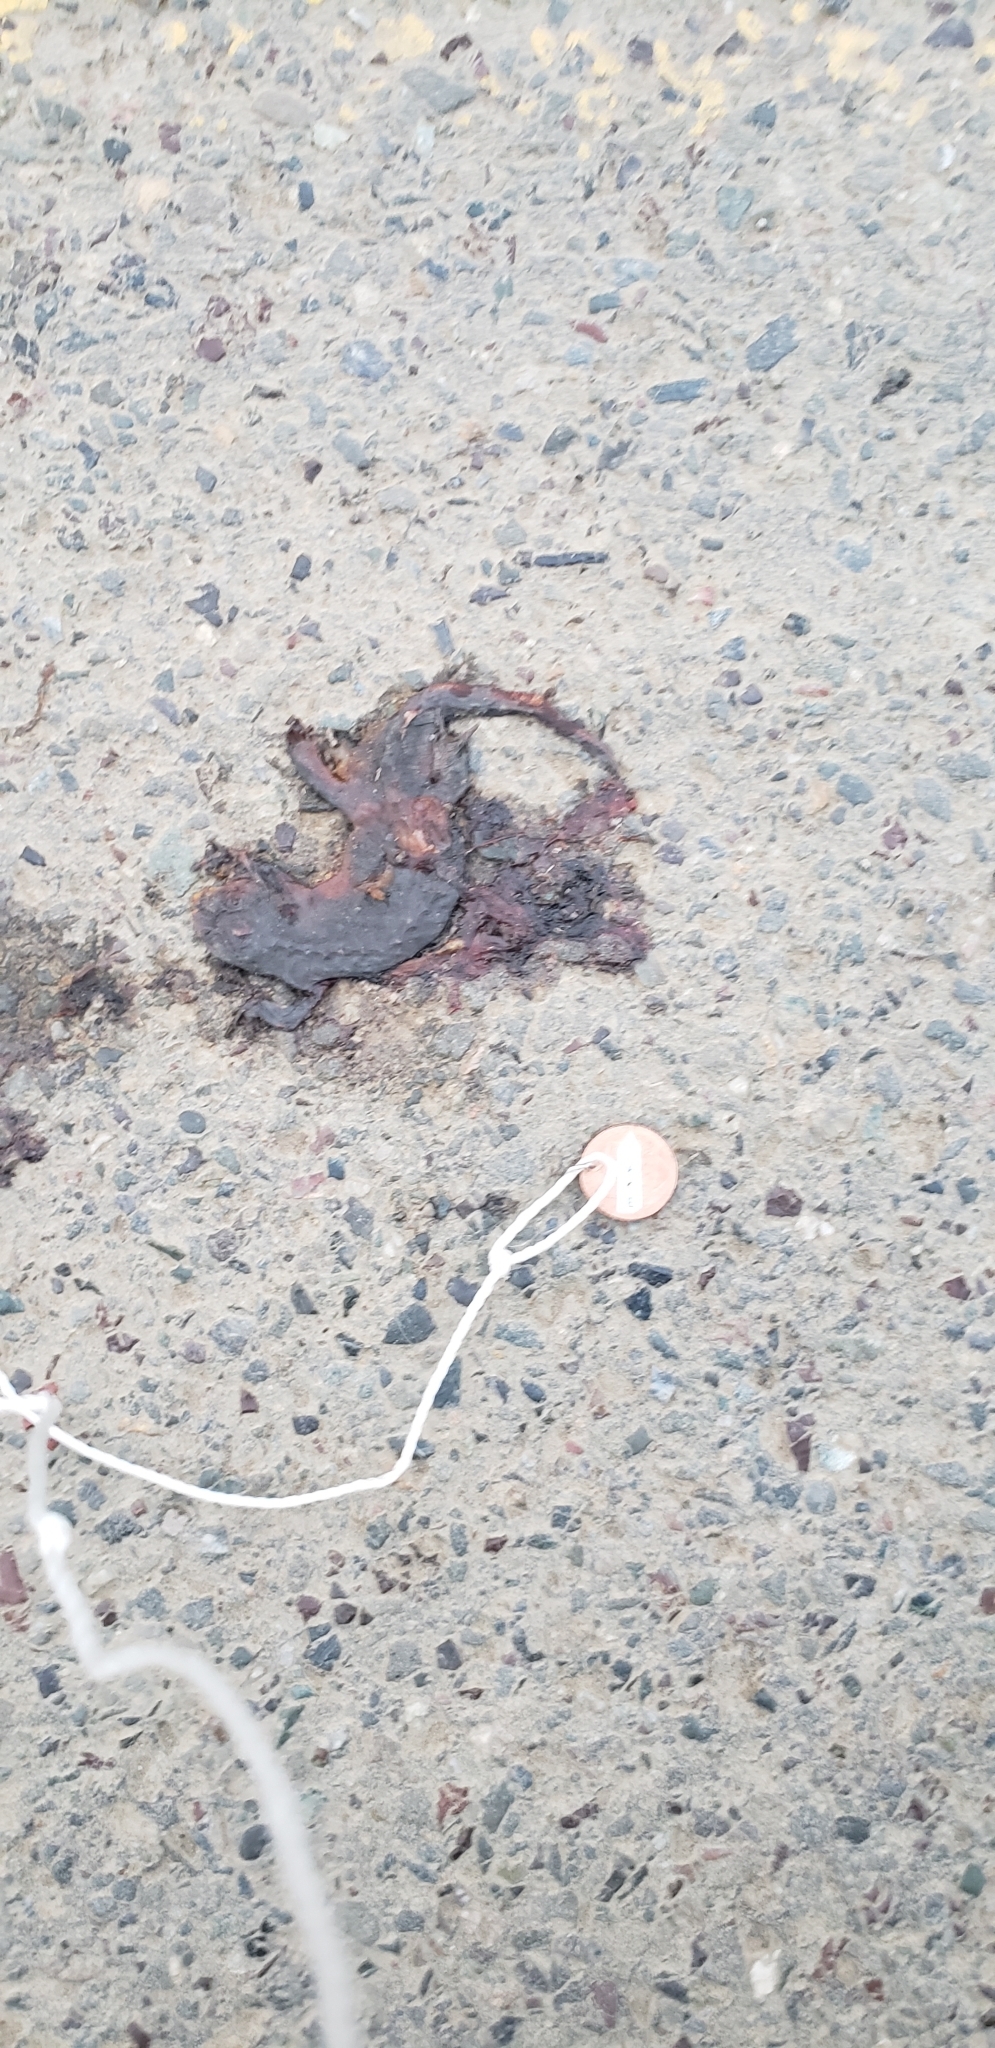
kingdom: Animalia
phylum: Chordata
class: Amphibia
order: Caudata
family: Salamandridae
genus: Taricha
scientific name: Taricha
